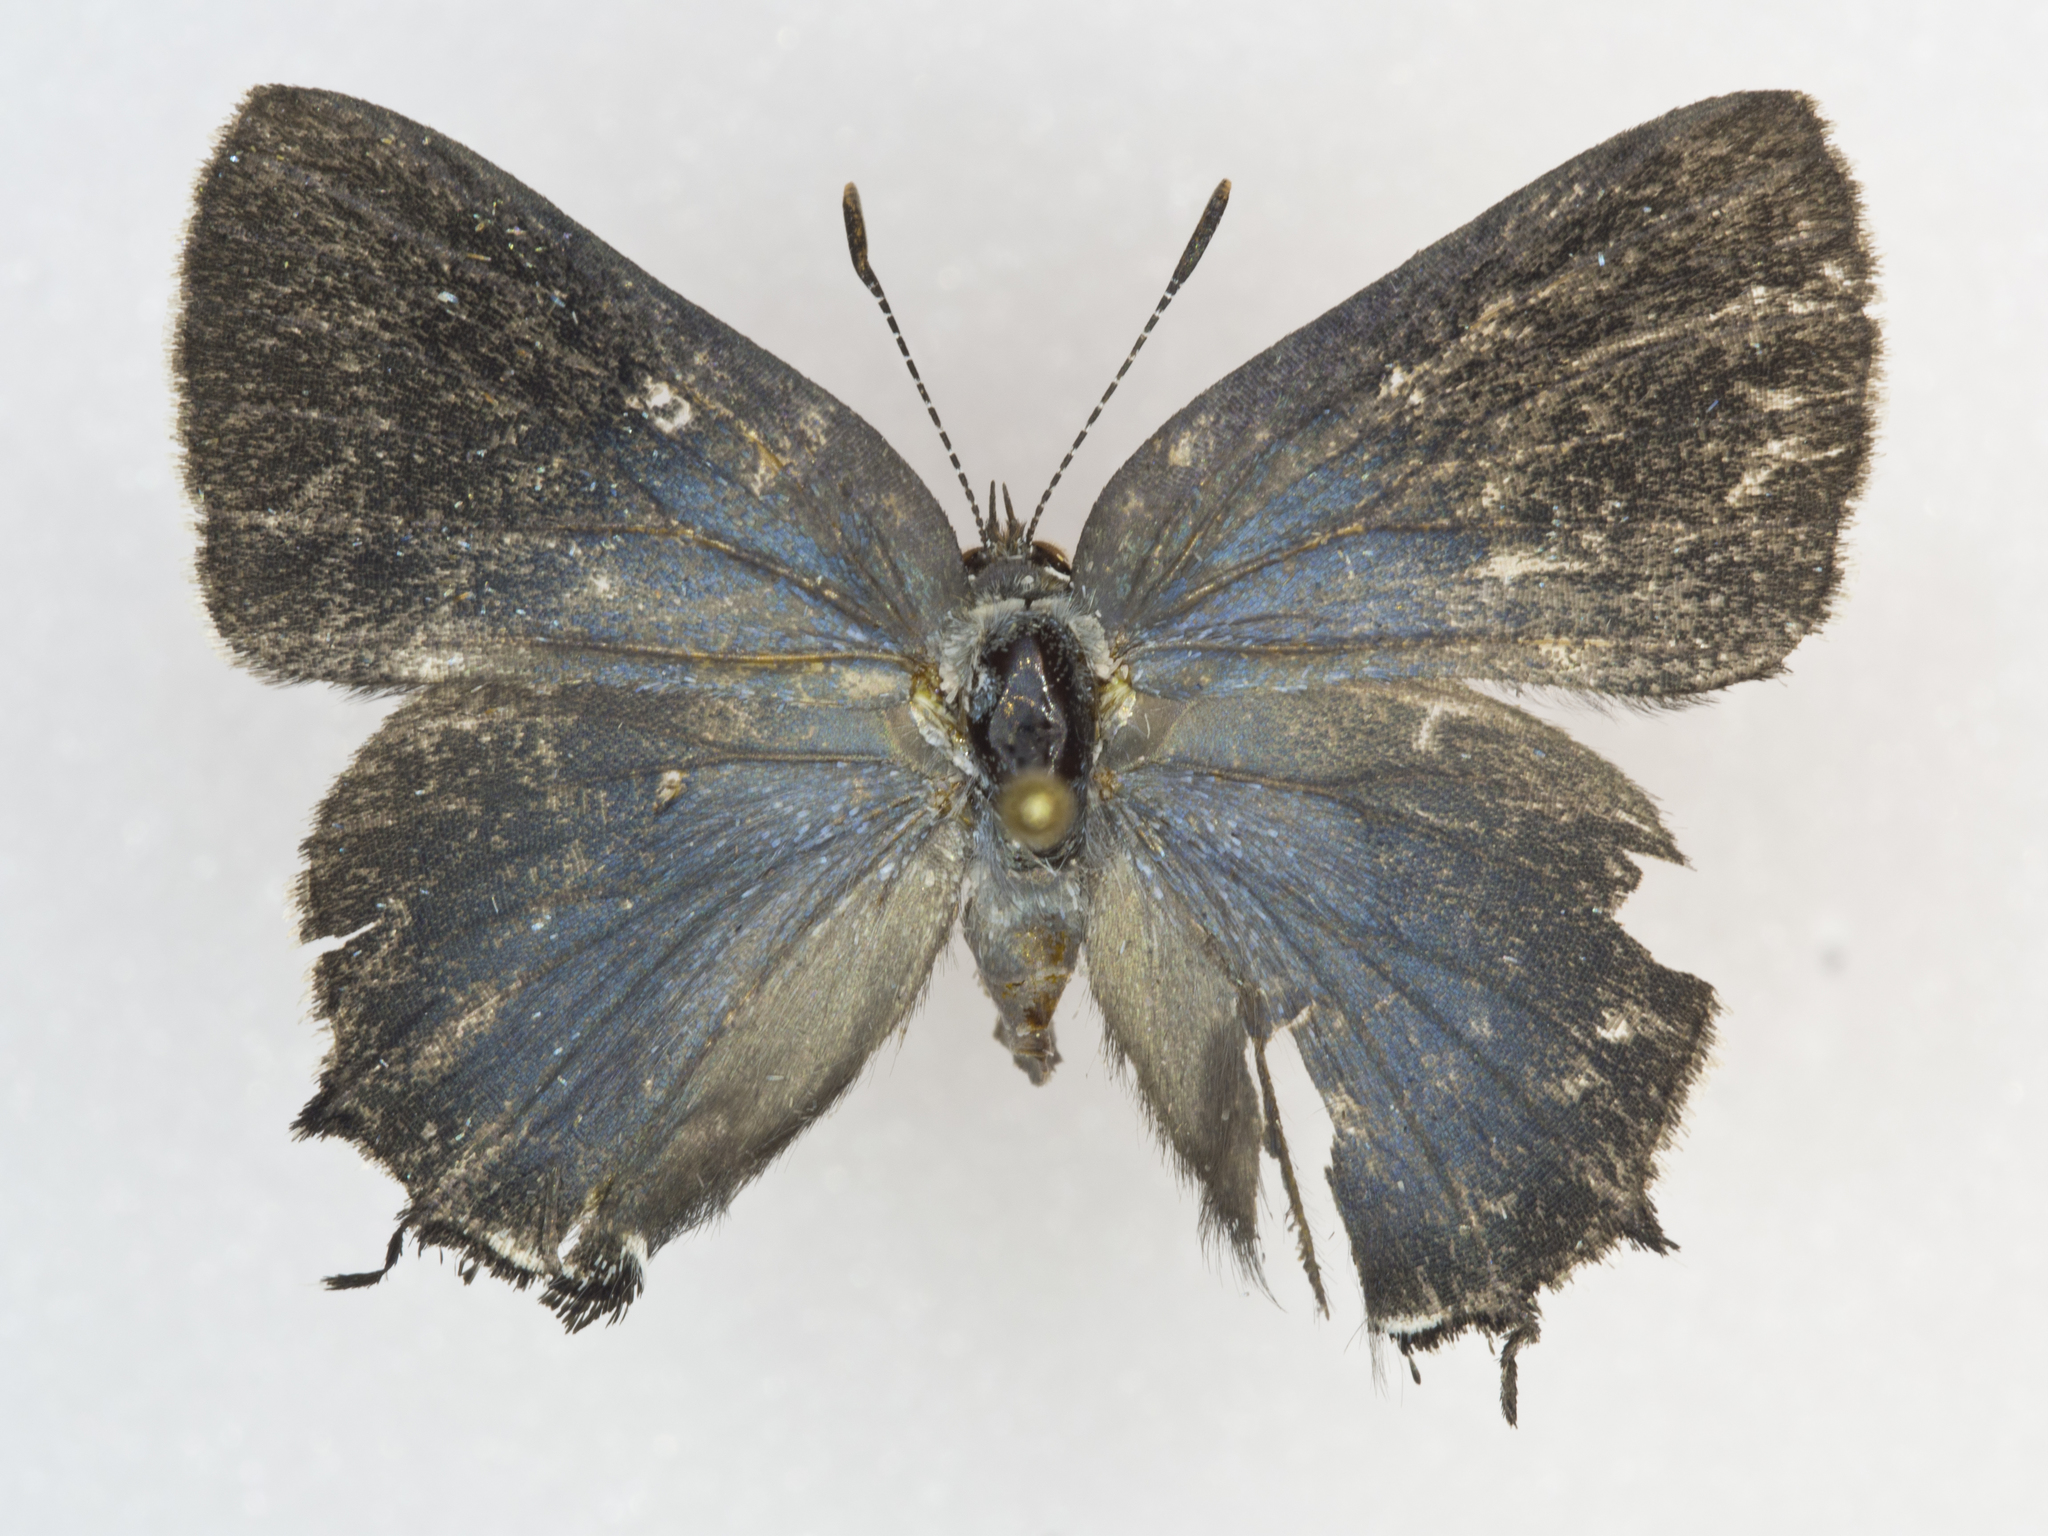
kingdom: Animalia
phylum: Arthropoda
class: Insecta
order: Lepidoptera
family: Lycaenidae
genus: Mitoura
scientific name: Mitoura spinetorum
